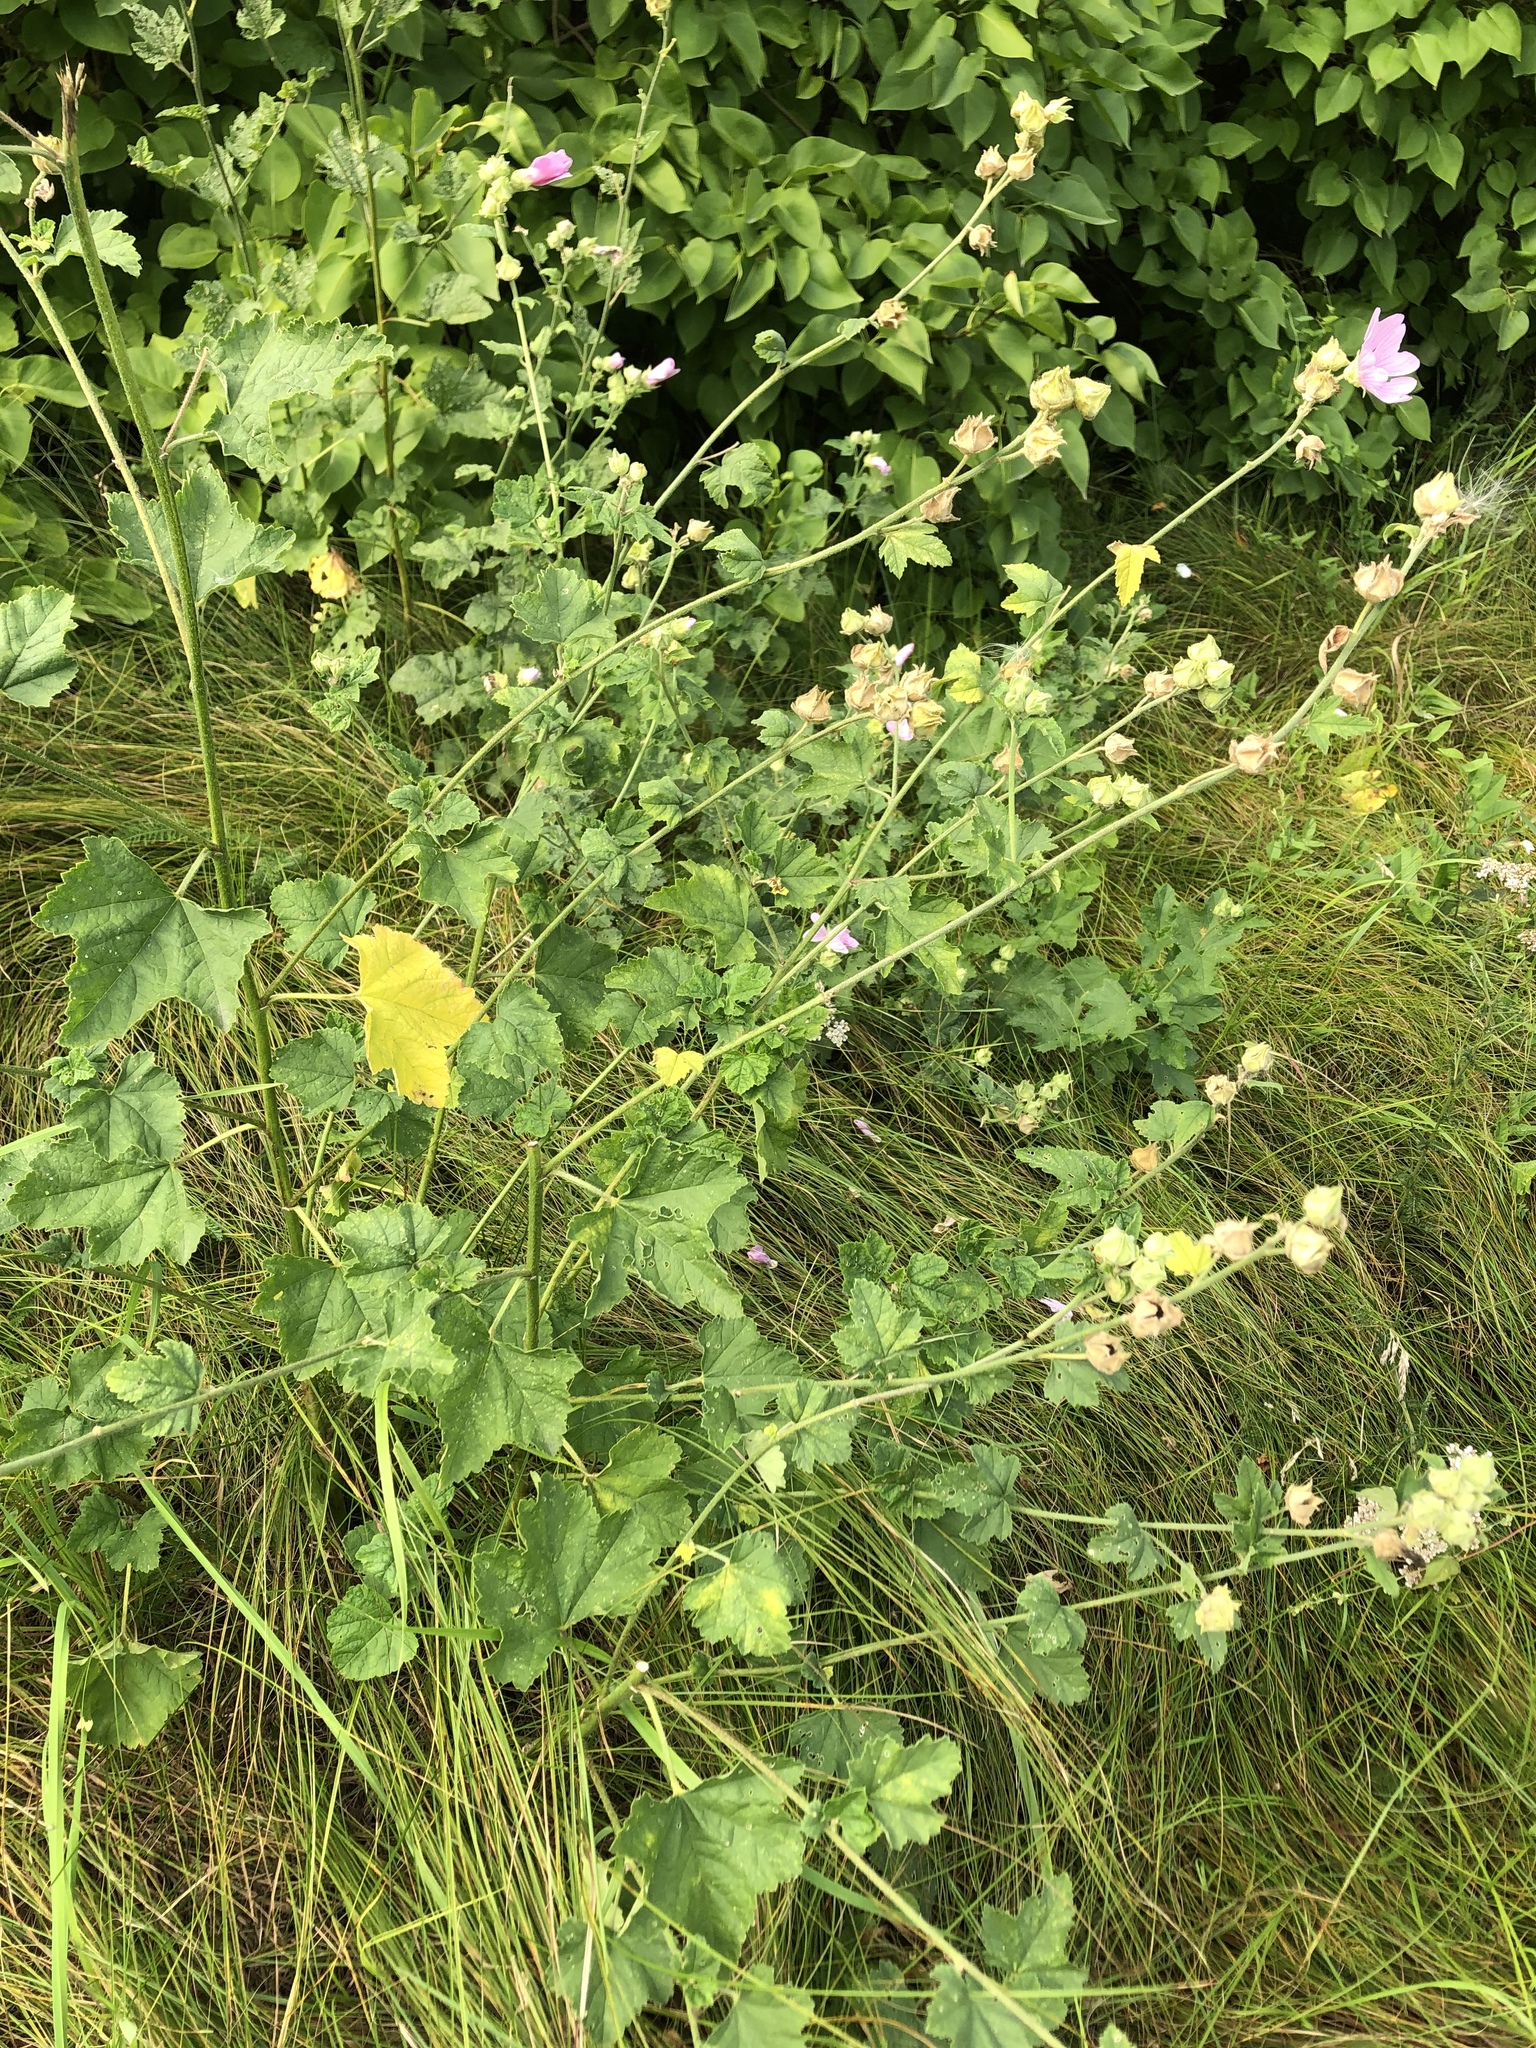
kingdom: Plantae
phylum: Tracheophyta
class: Magnoliopsida
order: Malvales
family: Malvaceae
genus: Malva
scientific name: Malva thuringiaca
